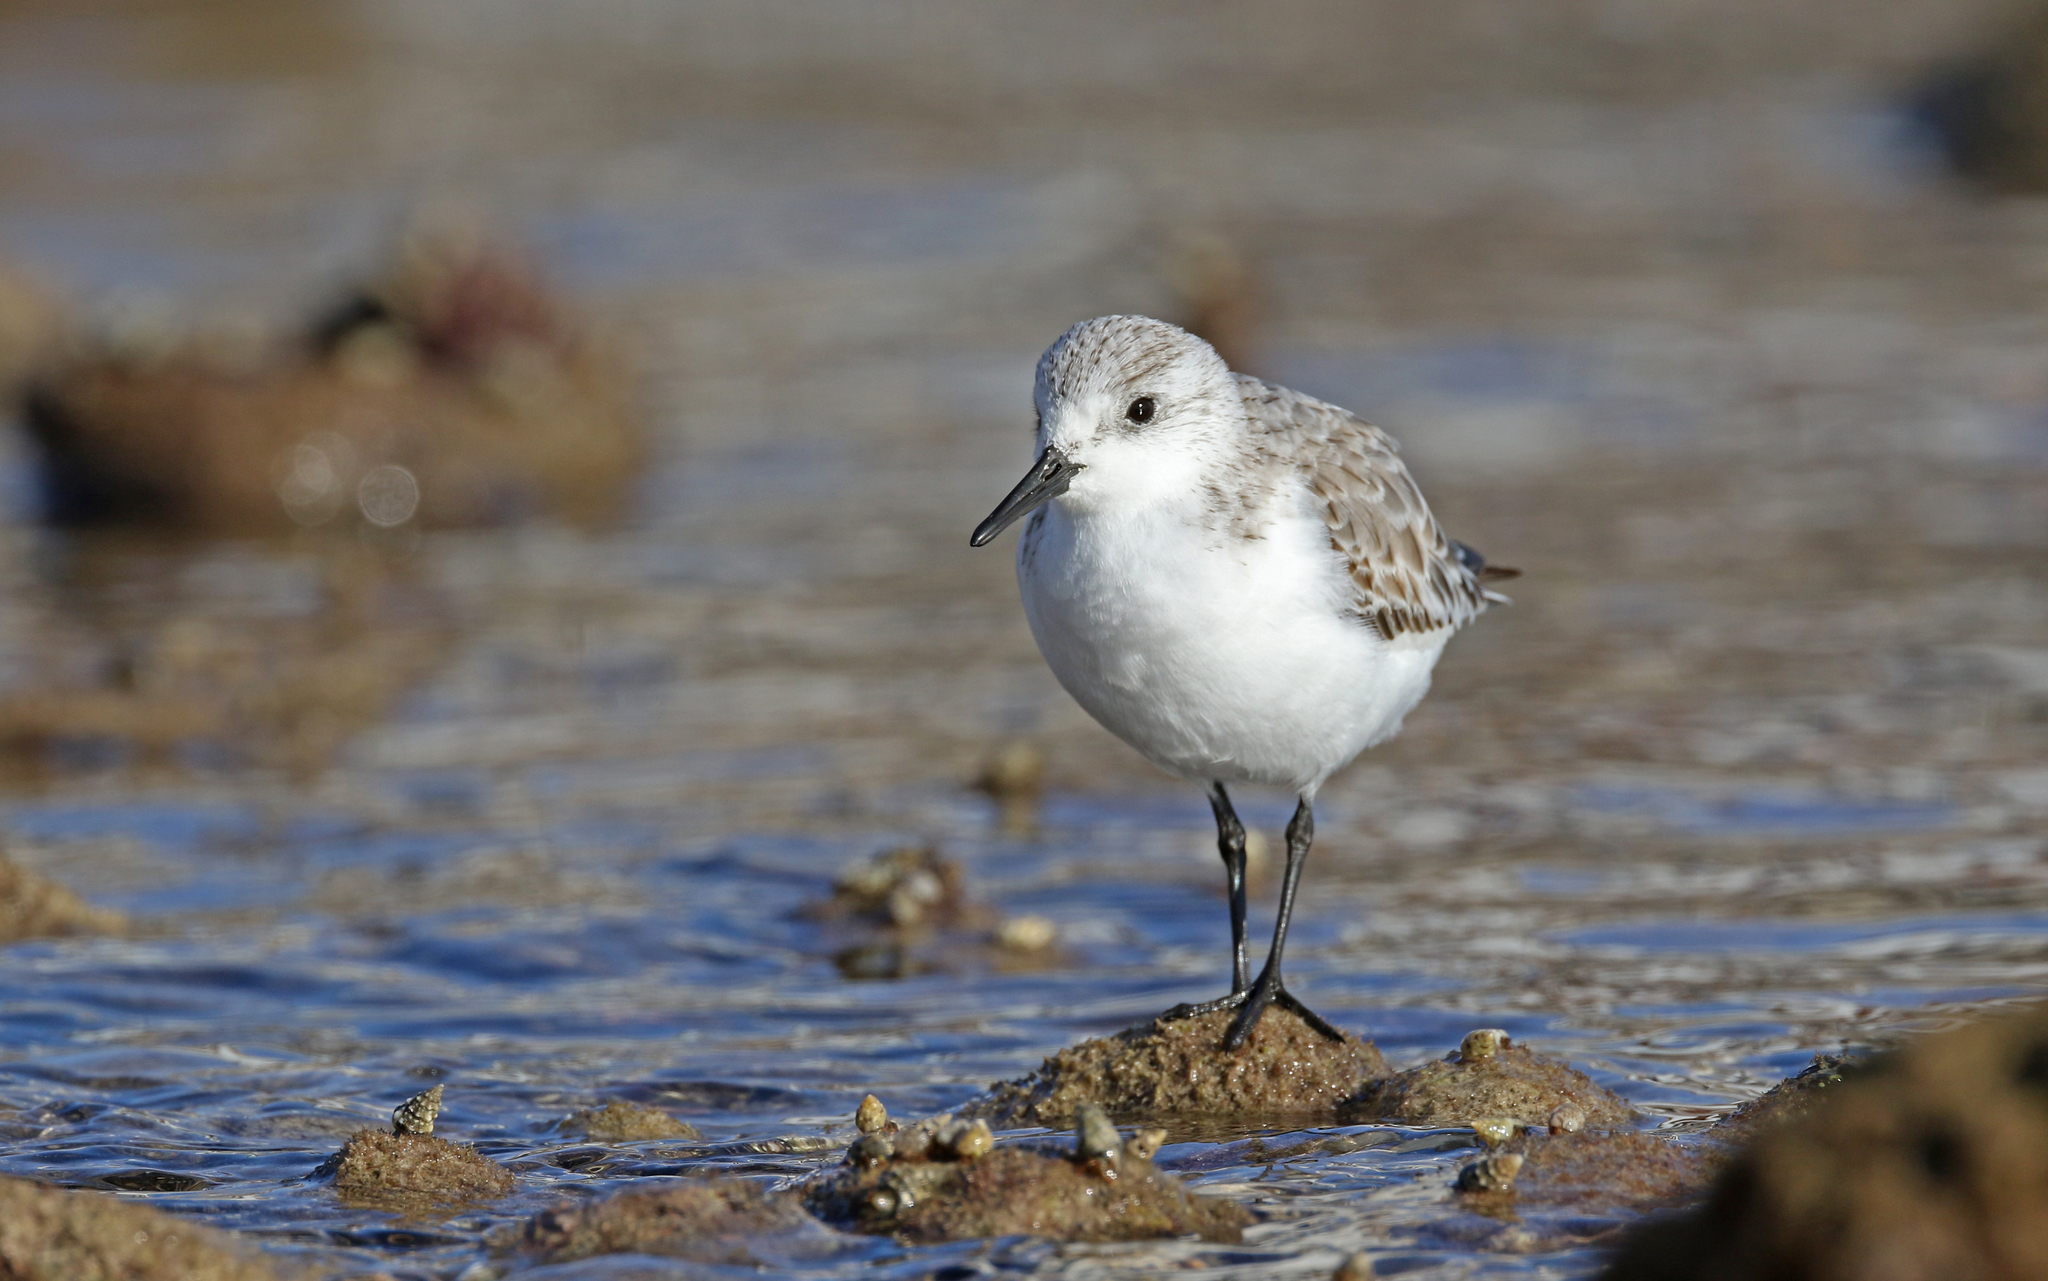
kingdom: Animalia
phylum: Chordata
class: Aves
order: Charadriiformes
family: Scolopacidae
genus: Calidris
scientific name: Calidris alba
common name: Sanderling
